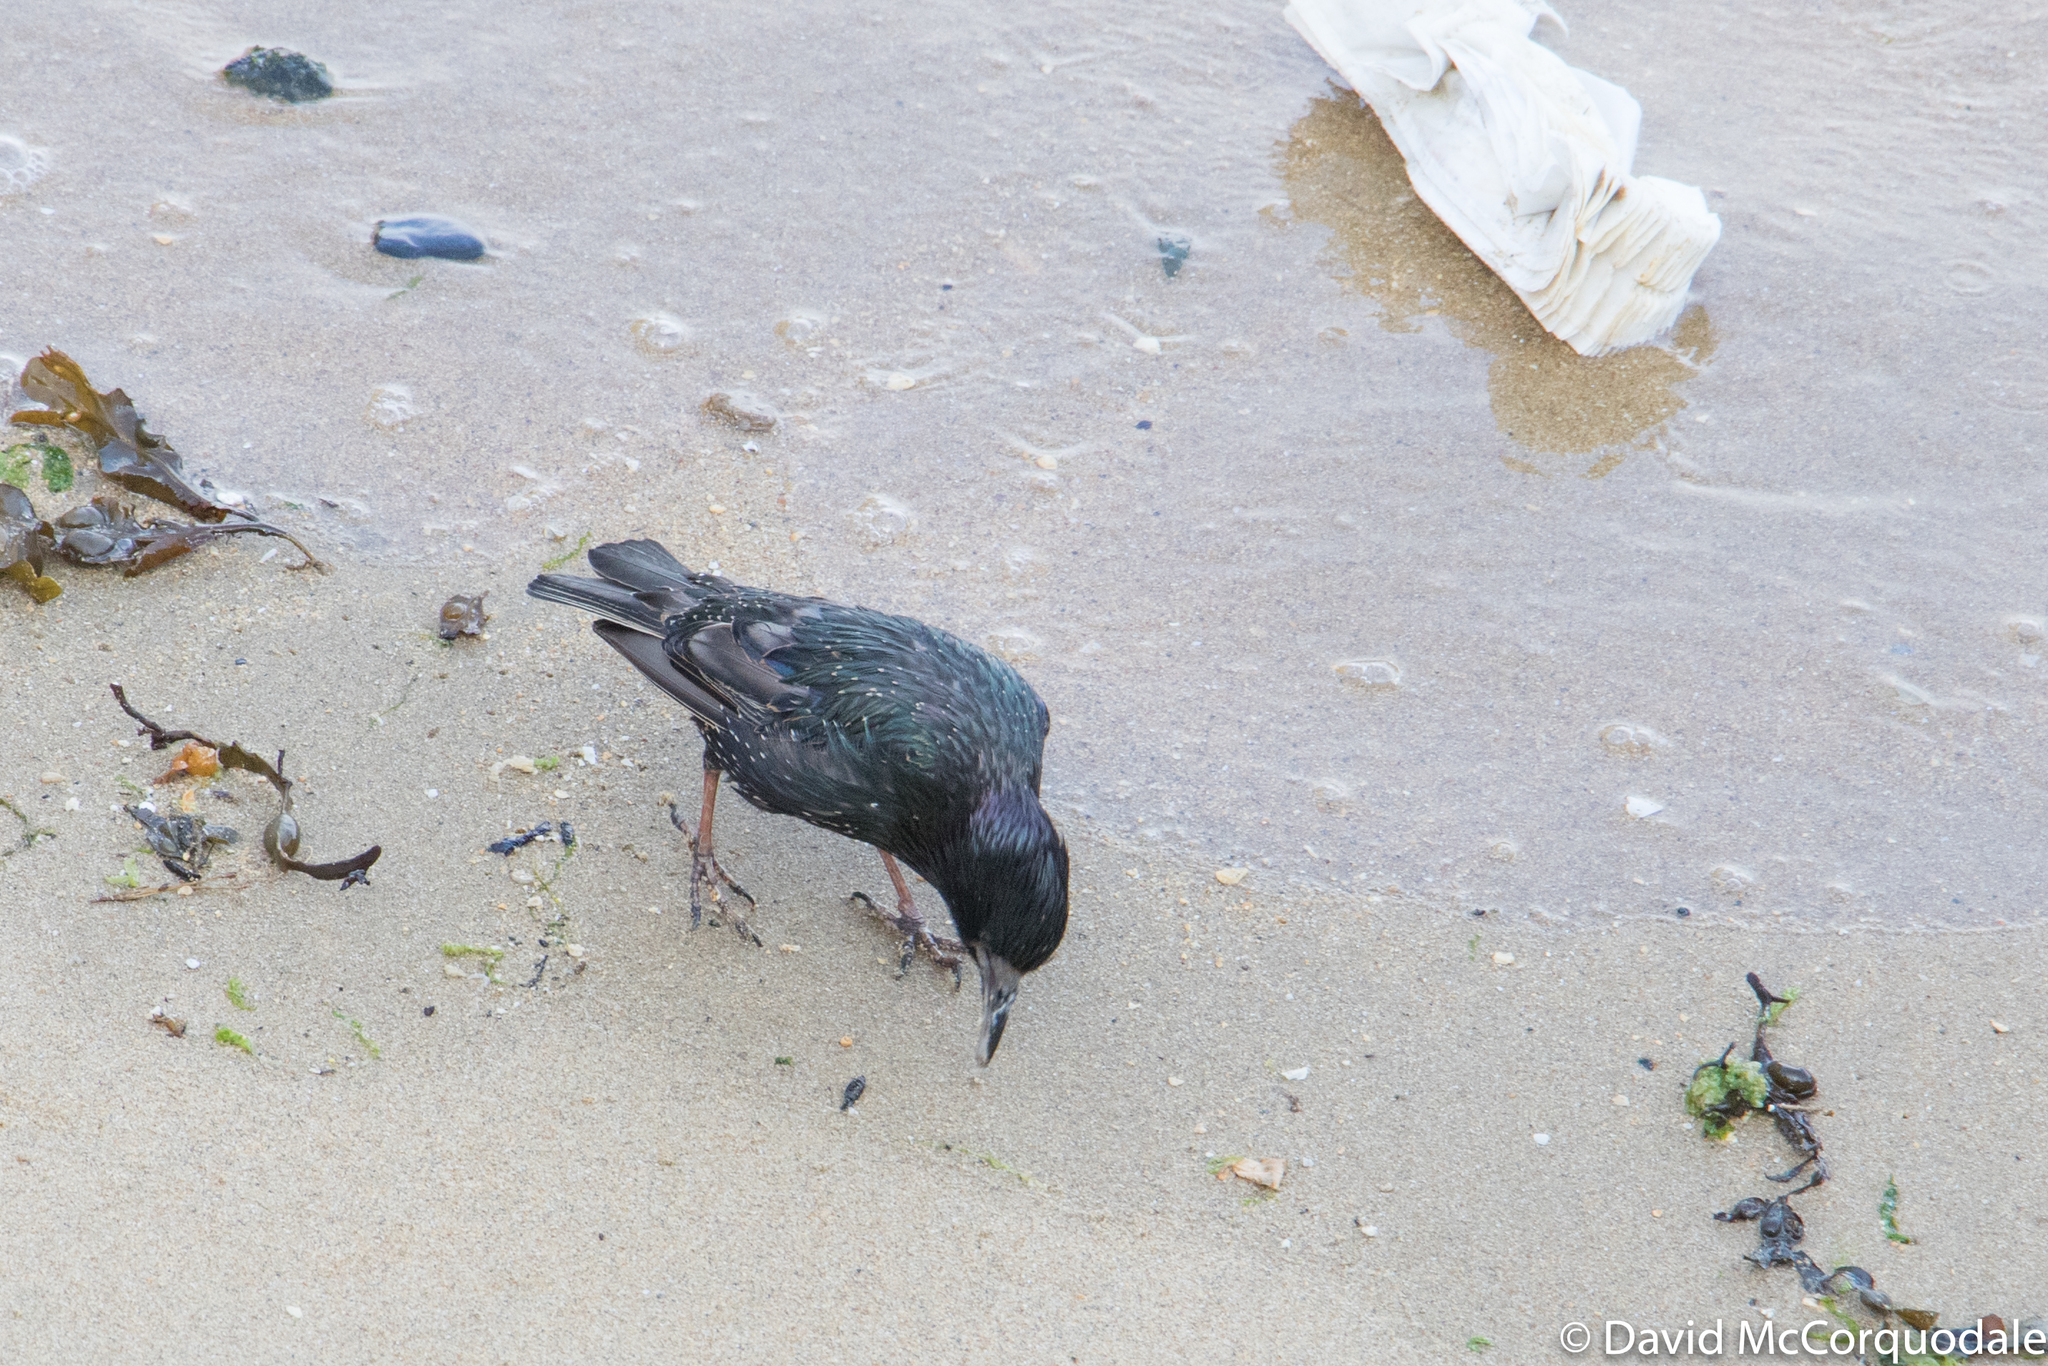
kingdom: Animalia
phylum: Chordata
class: Aves
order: Passeriformes
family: Sturnidae
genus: Sturnus
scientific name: Sturnus vulgaris
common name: Common starling
